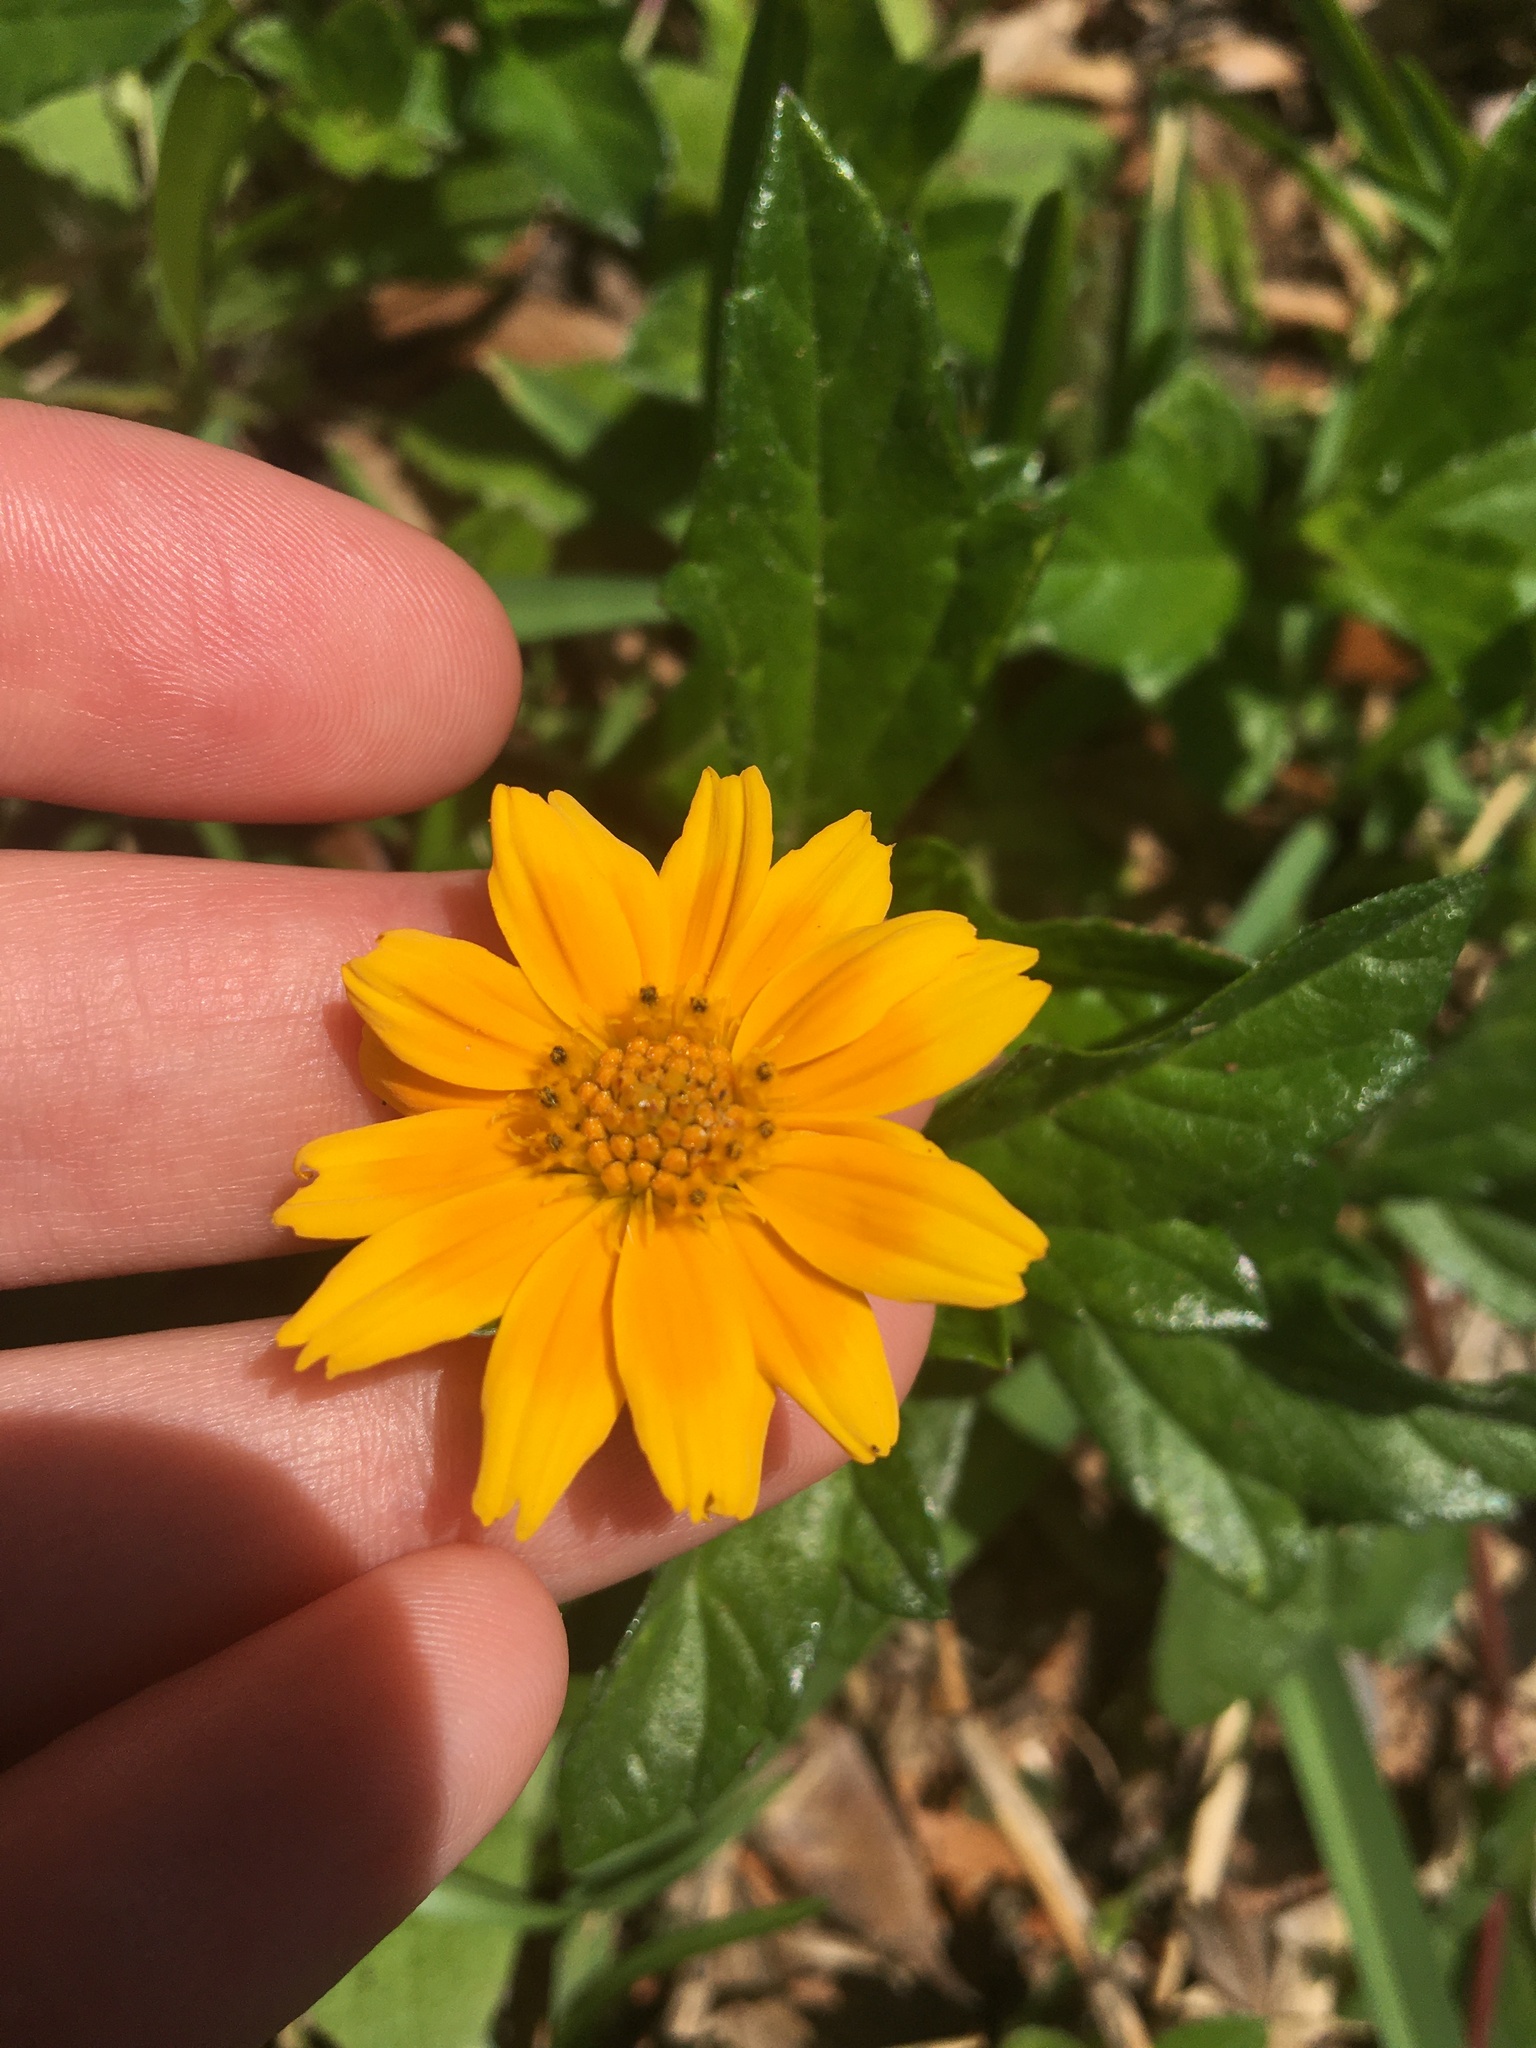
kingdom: Plantae
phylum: Tracheophyta
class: Magnoliopsida
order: Asterales
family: Asteraceae
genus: Sphagneticola
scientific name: Sphagneticola trilobata
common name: Bay biscayne creeping-oxeye
